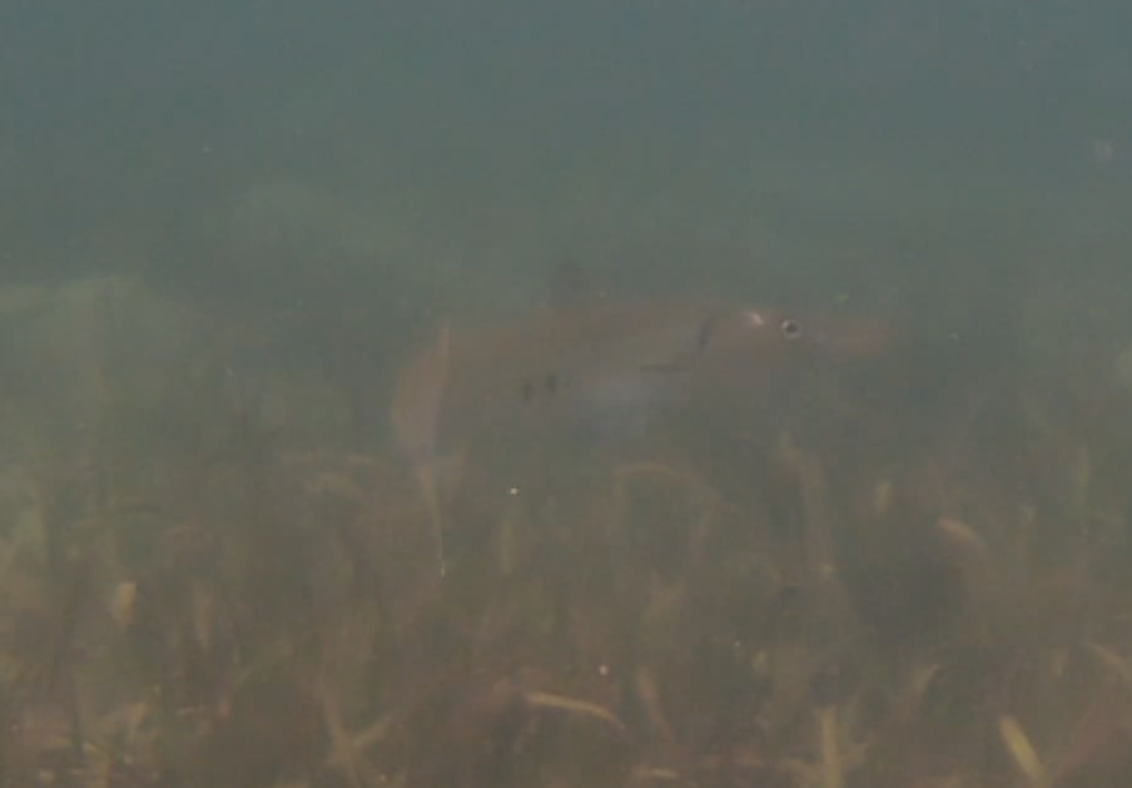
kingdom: Animalia
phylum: Chordata
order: Perciformes
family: Sphyraenidae
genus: Sphyraena
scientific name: Sphyraena barracuda
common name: Great barracuda
